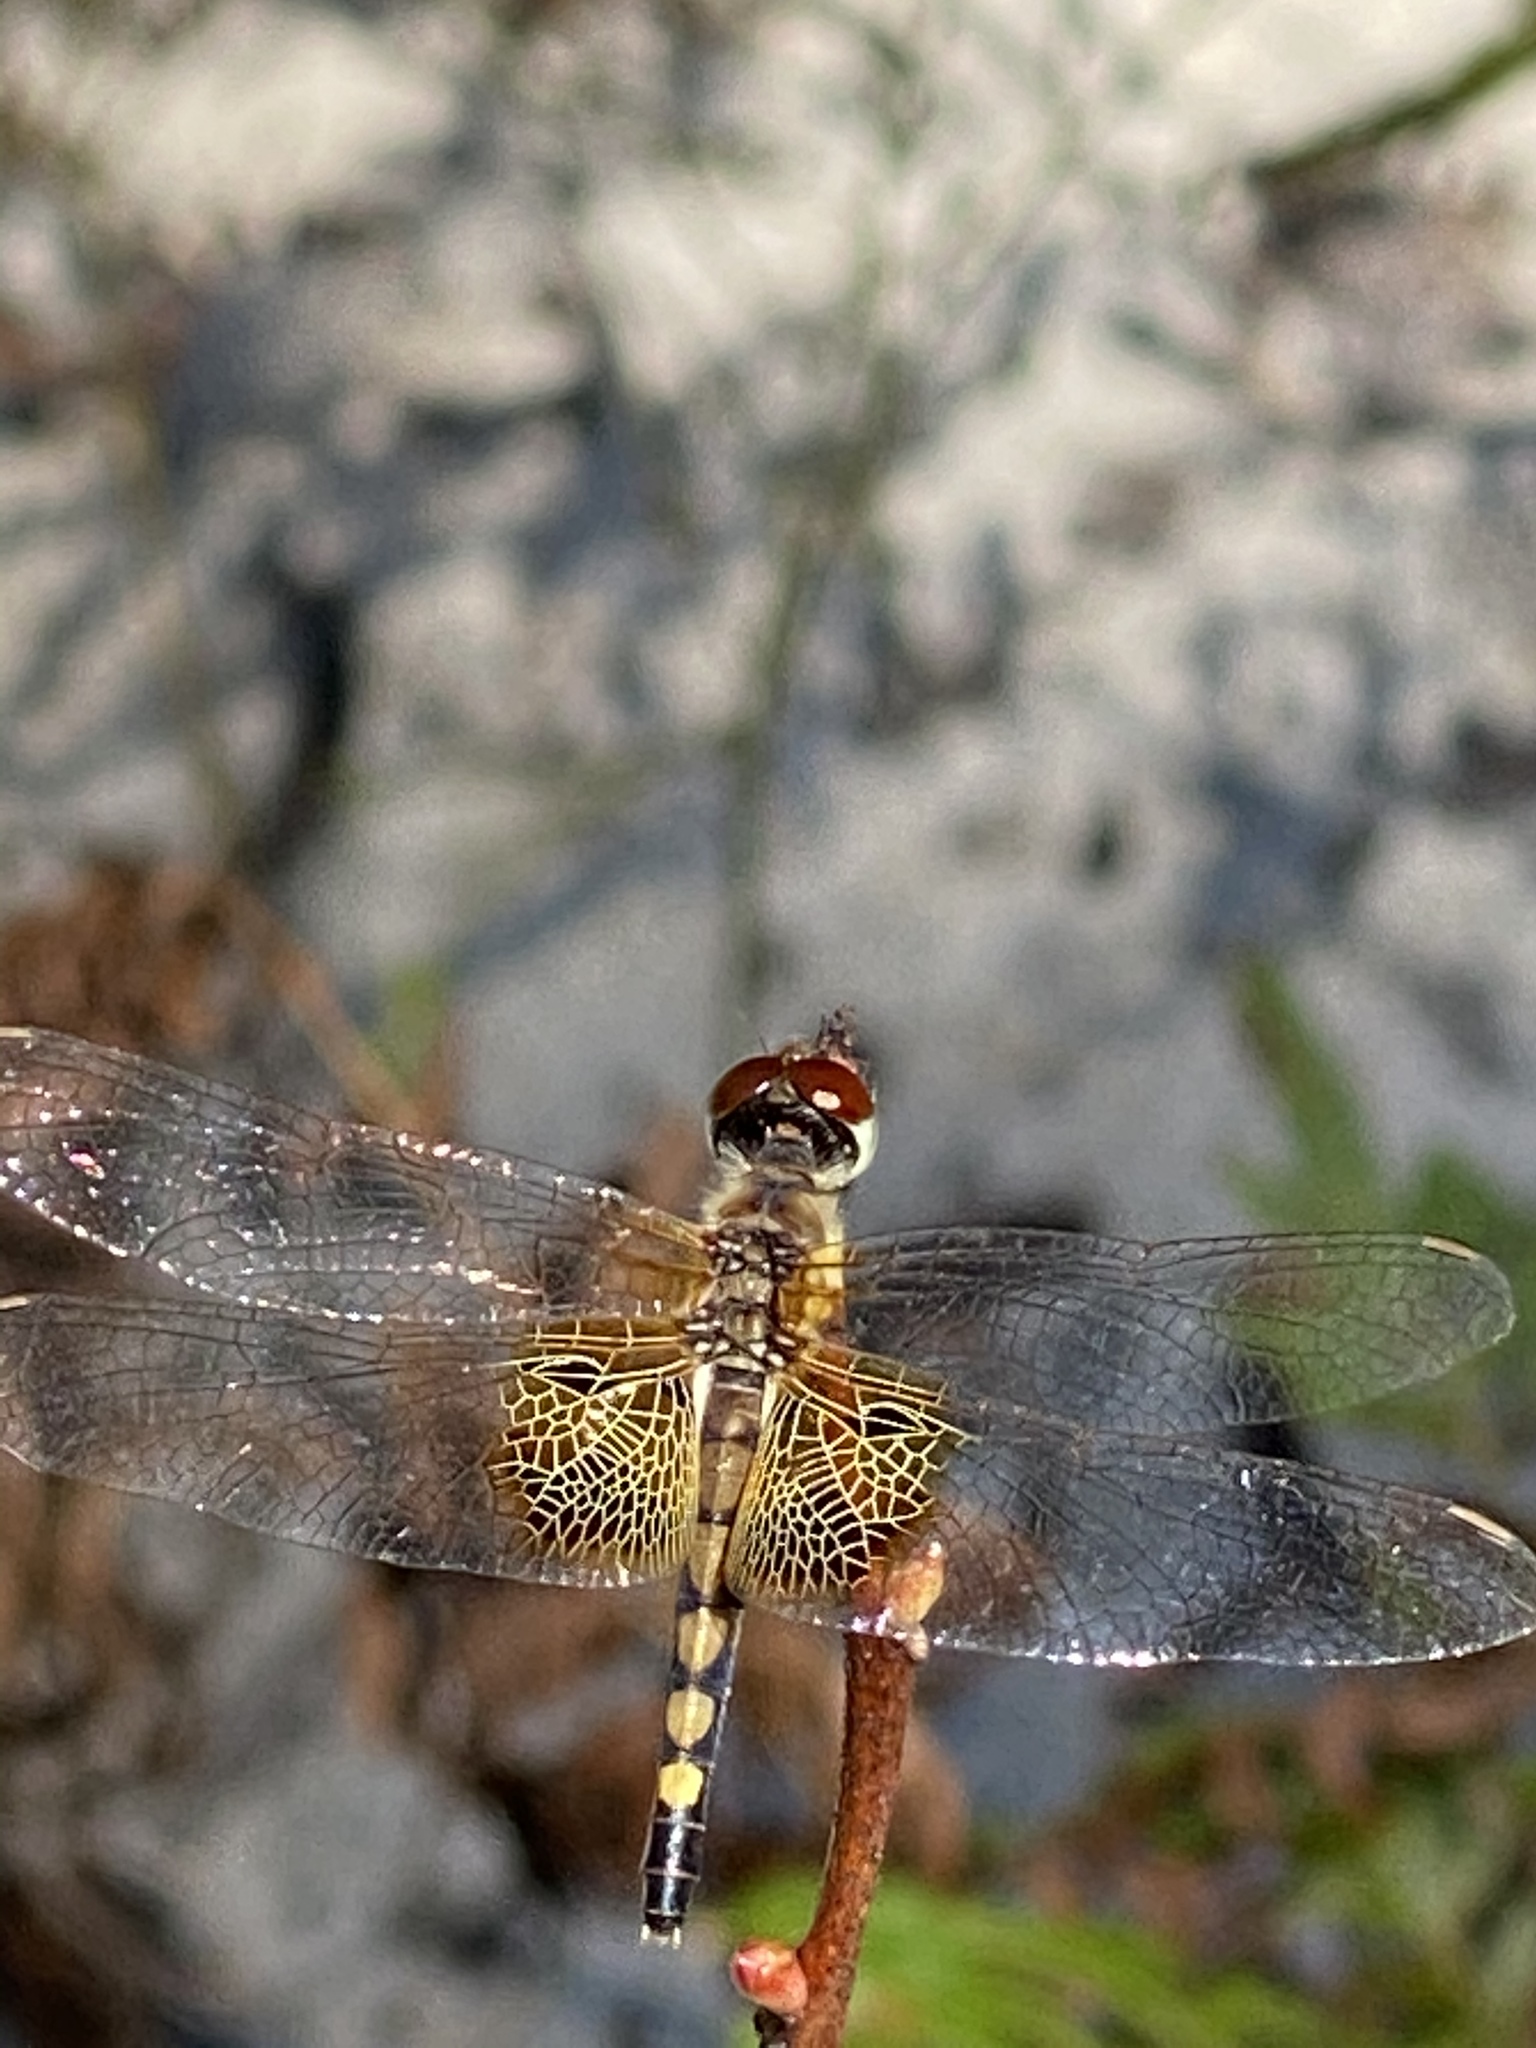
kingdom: Animalia
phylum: Arthropoda
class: Insecta
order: Odonata
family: Libellulidae
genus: Celithemis
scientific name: Celithemis amanda
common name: Amanda's pennant
